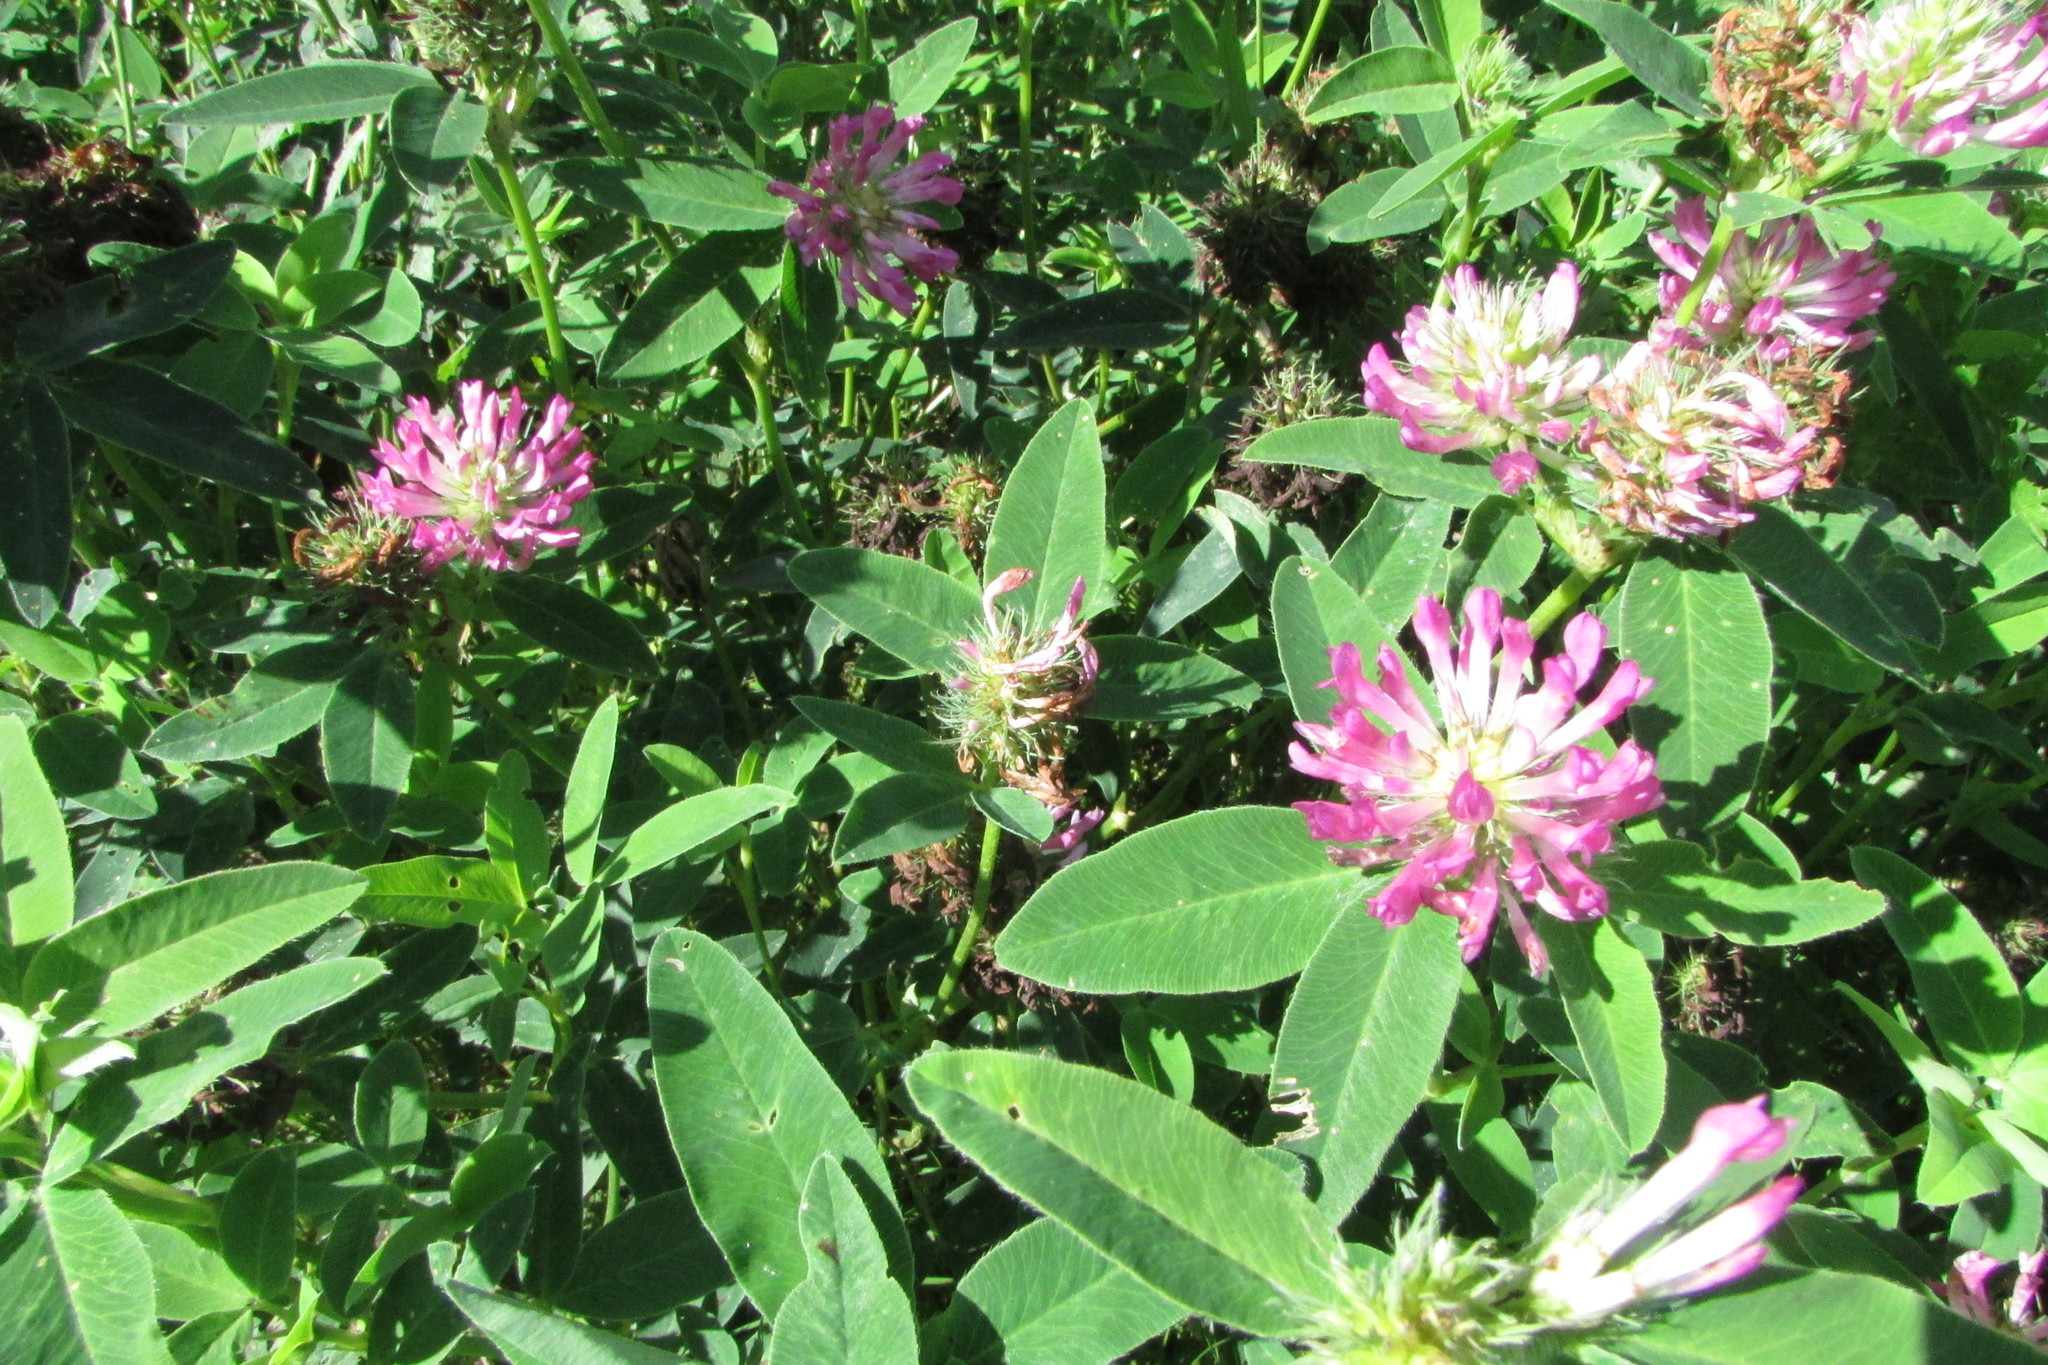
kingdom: Plantae
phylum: Tracheophyta
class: Magnoliopsida
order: Fabales
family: Fabaceae
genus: Trifolium
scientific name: Trifolium medium
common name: Zigzag clover
